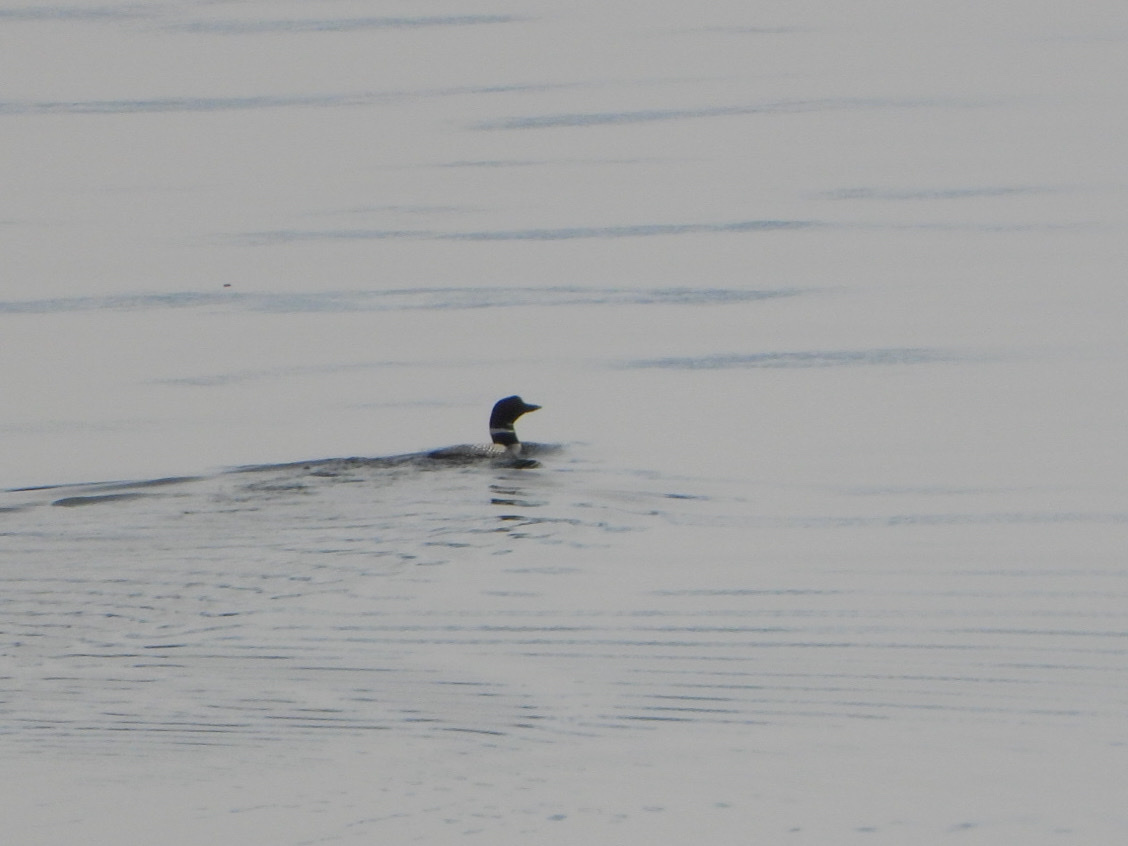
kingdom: Animalia
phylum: Chordata
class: Aves
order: Gaviiformes
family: Gaviidae
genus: Gavia
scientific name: Gavia immer
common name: Common loon
